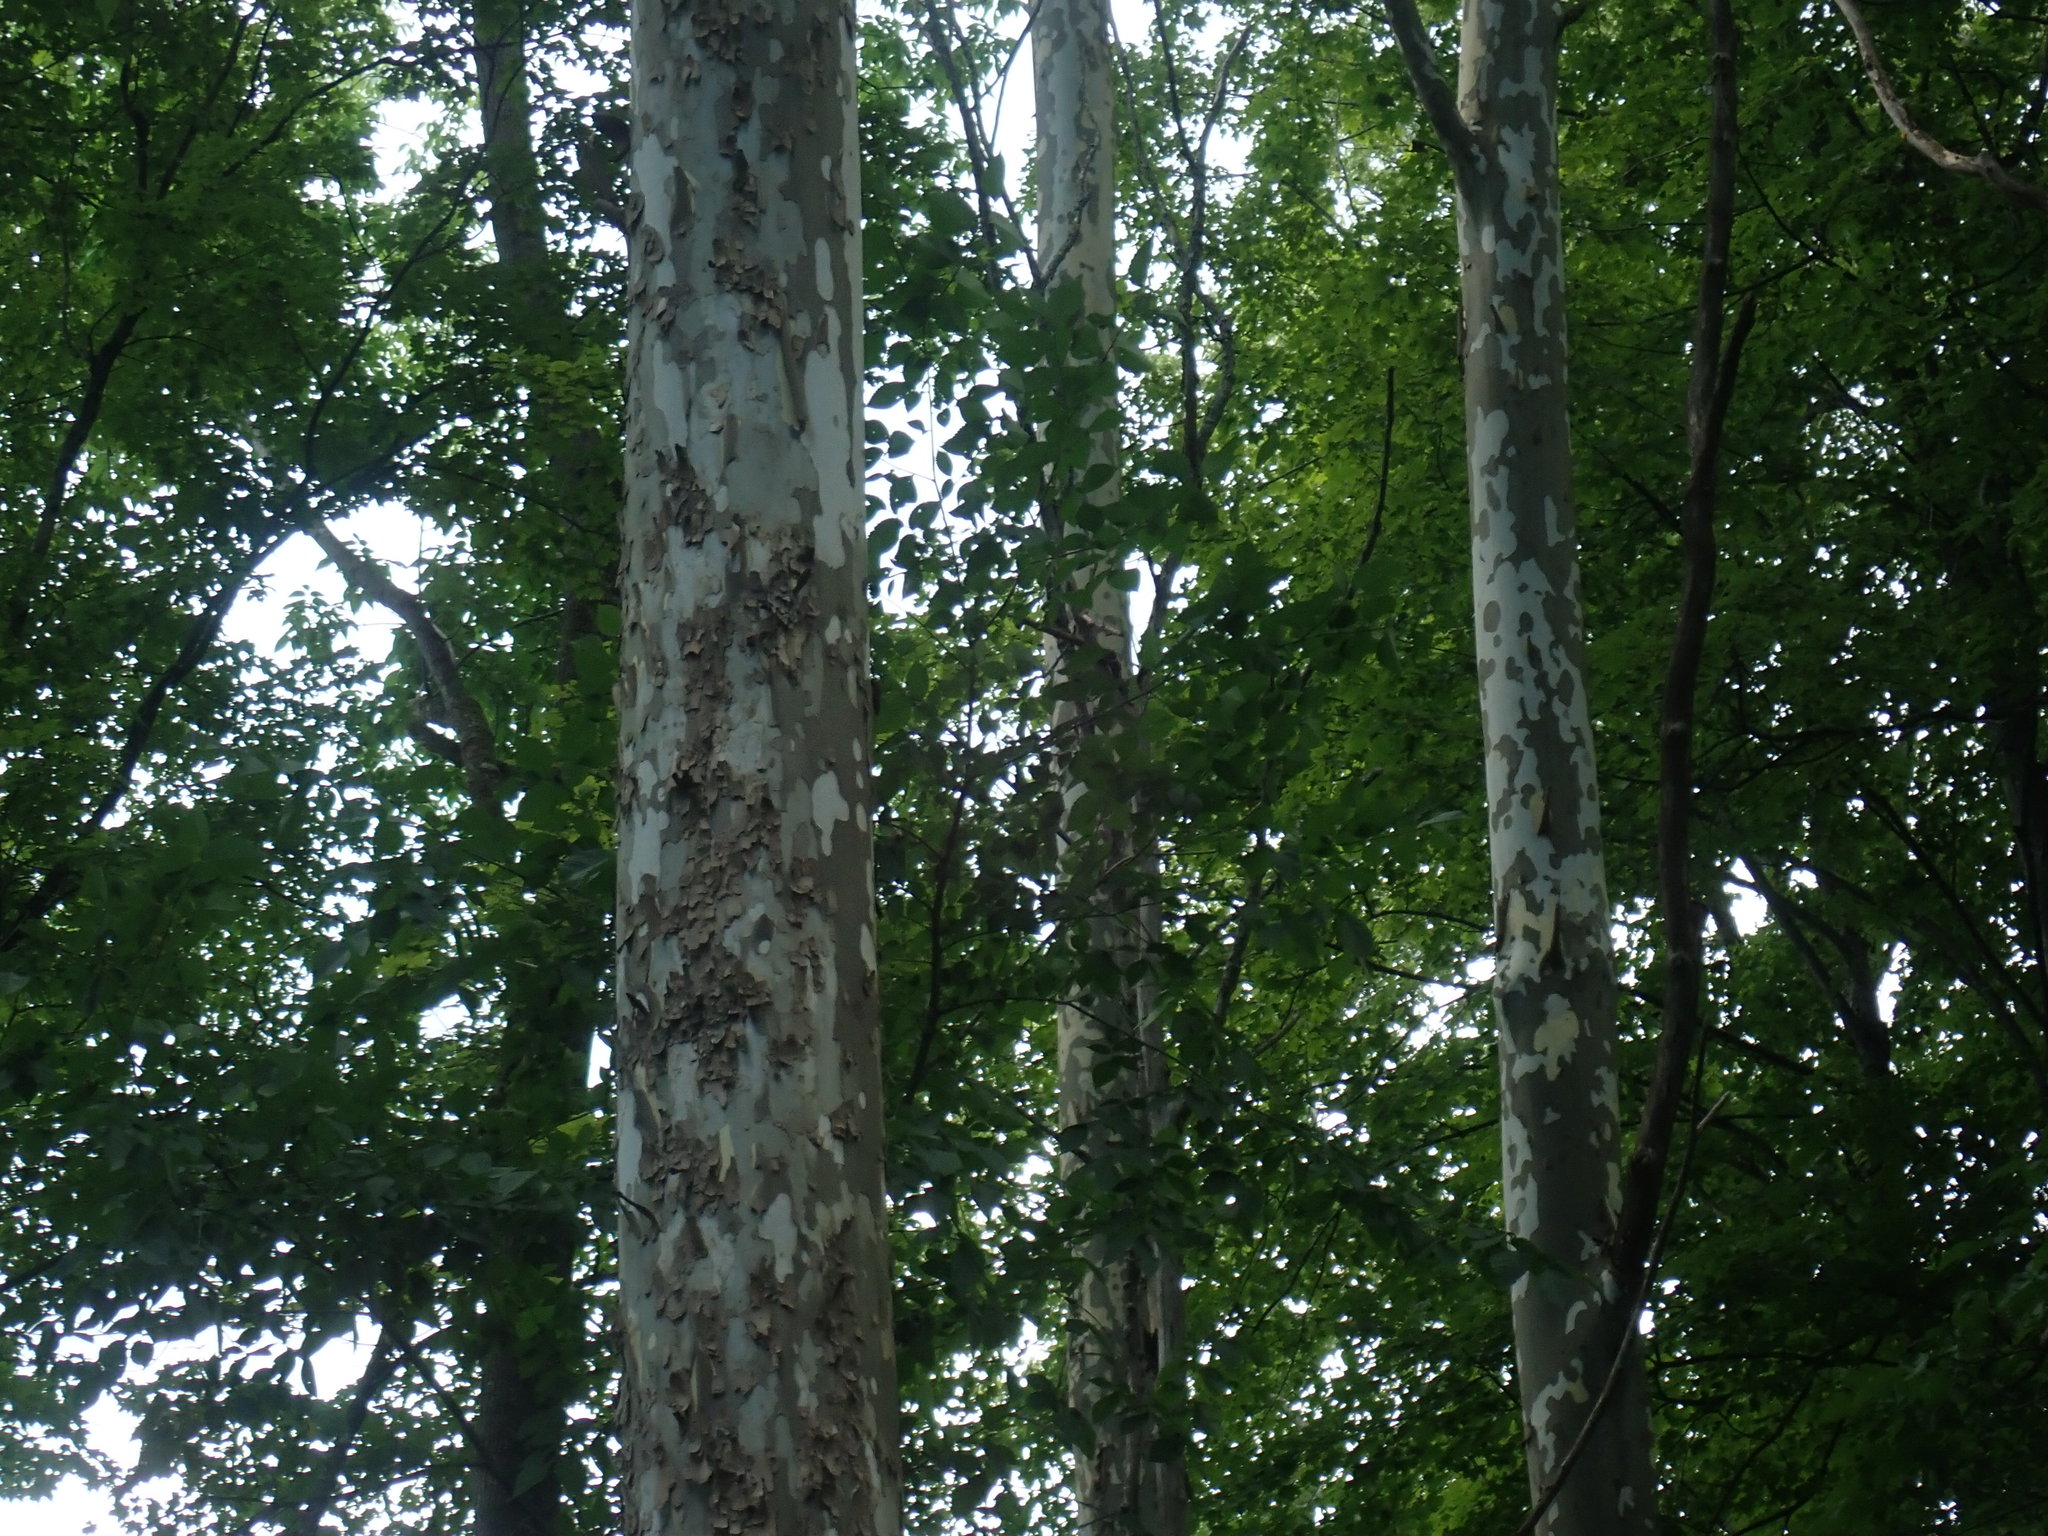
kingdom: Plantae
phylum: Tracheophyta
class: Magnoliopsida
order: Proteales
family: Platanaceae
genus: Platanus
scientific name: Platanus occidentalis
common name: American sycamore
